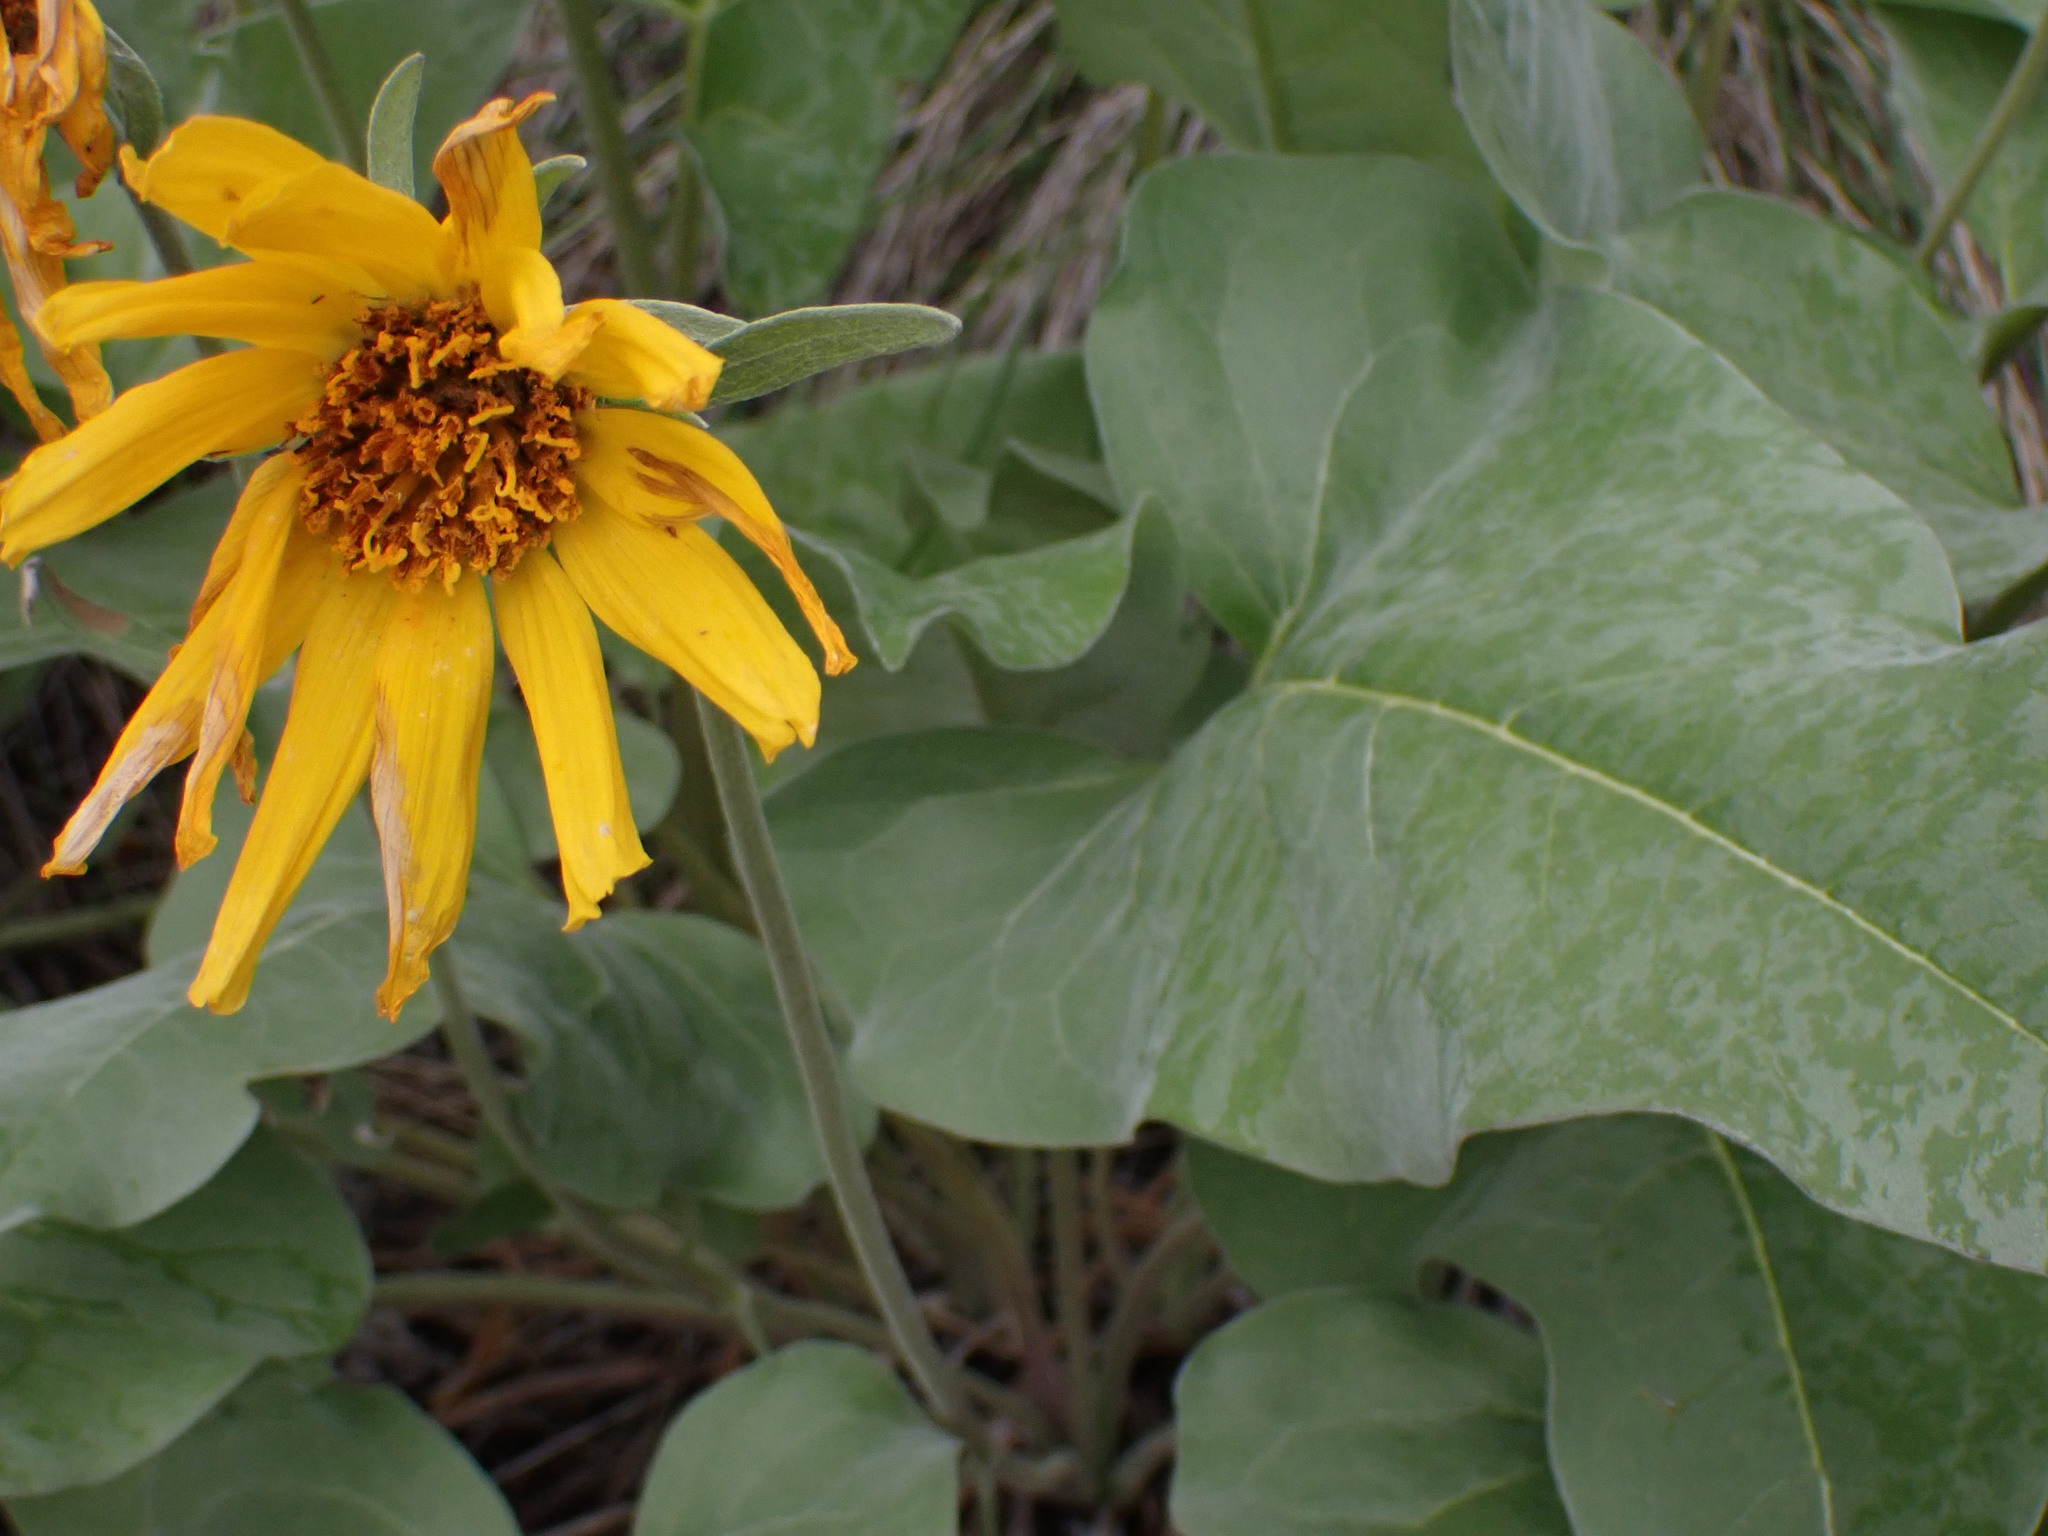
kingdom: Plantae
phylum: Tracheophyta
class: Magnoliopsida
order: Asterales
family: Asteraceae
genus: Wyethia
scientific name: Wyethia sagittata
